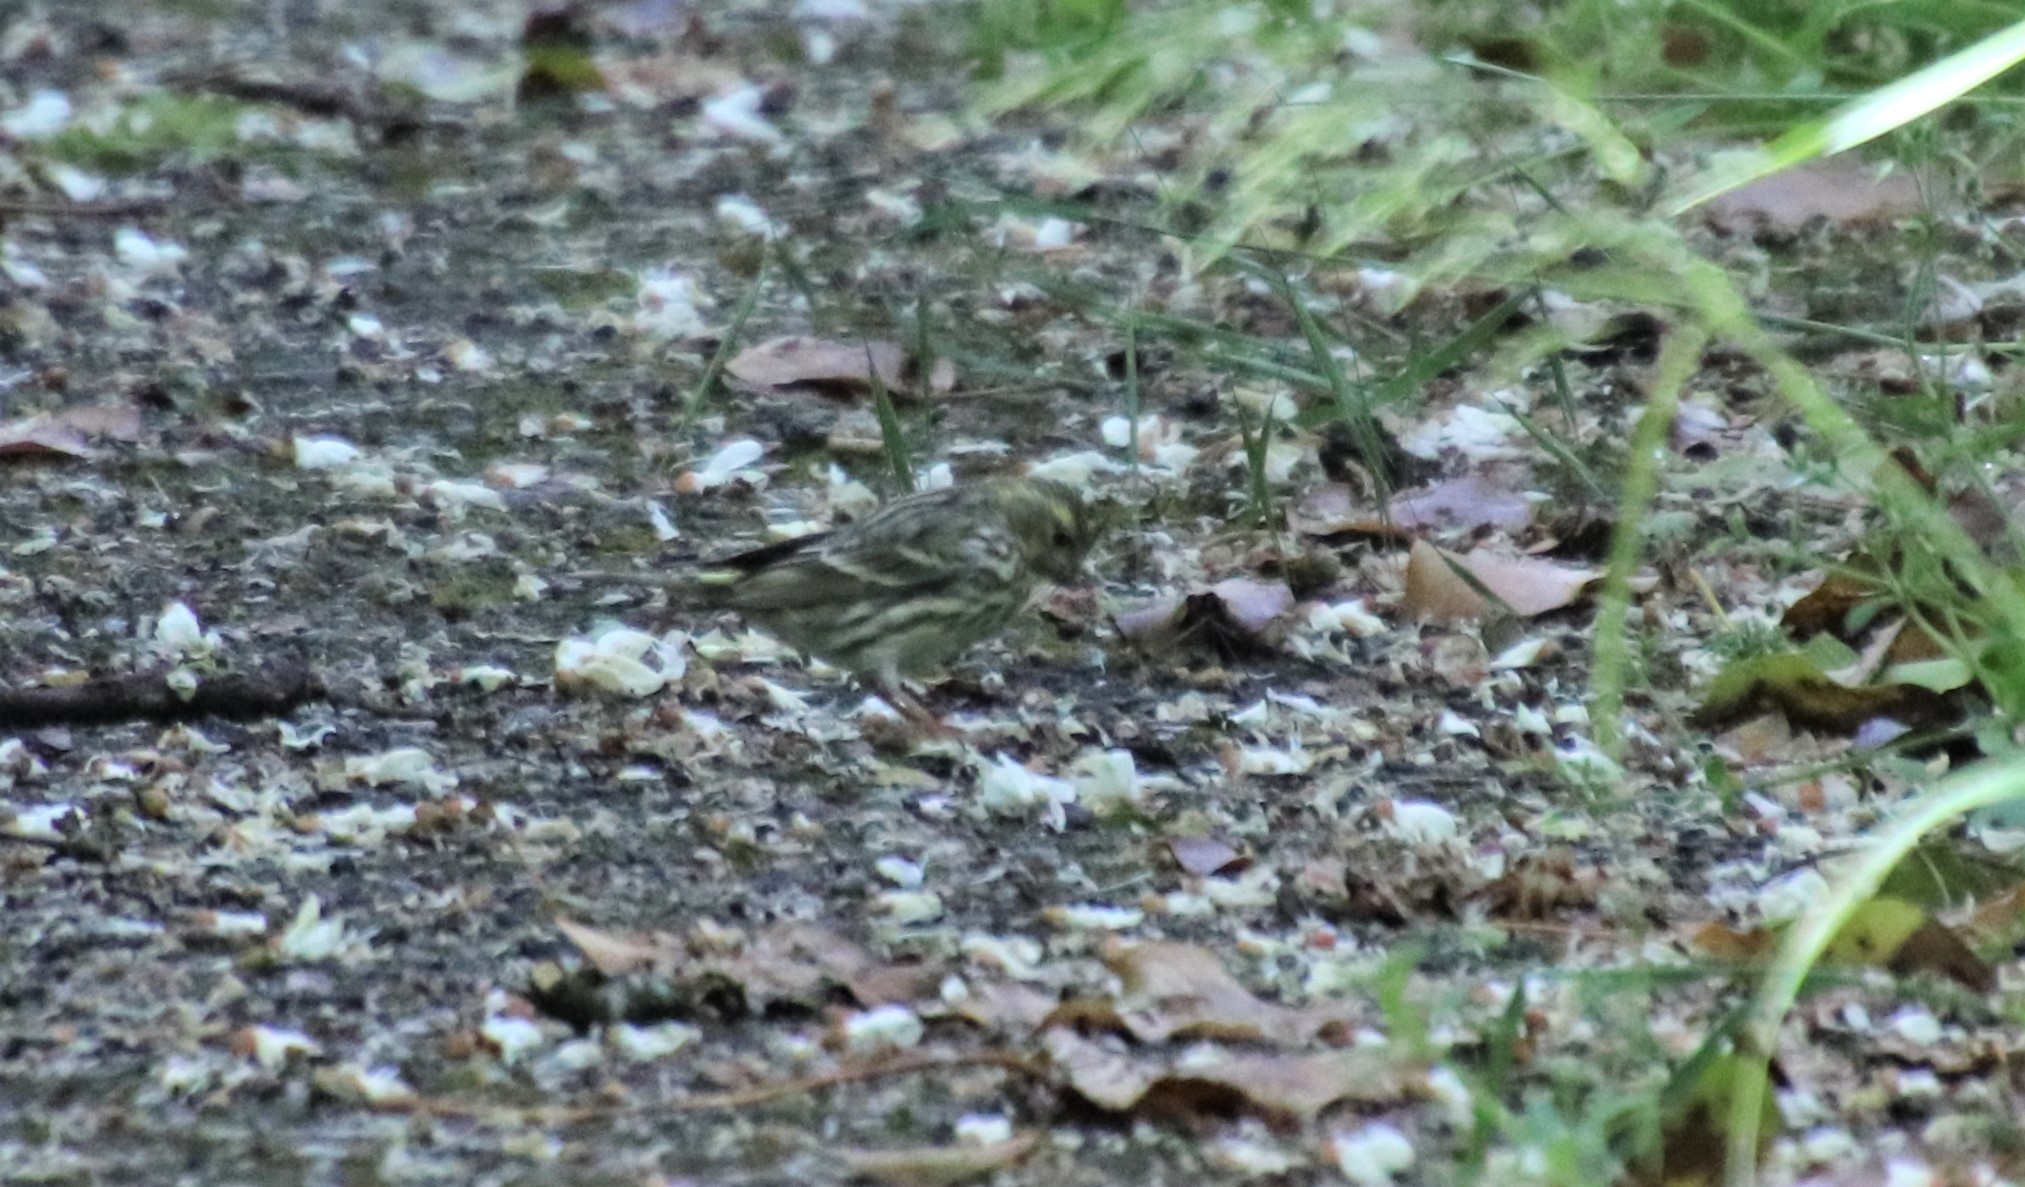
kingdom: Animalia
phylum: Chordata
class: Aves
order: Passeriformes
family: Fringillidae
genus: Serinus
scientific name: Serinus serinus
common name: European serin
